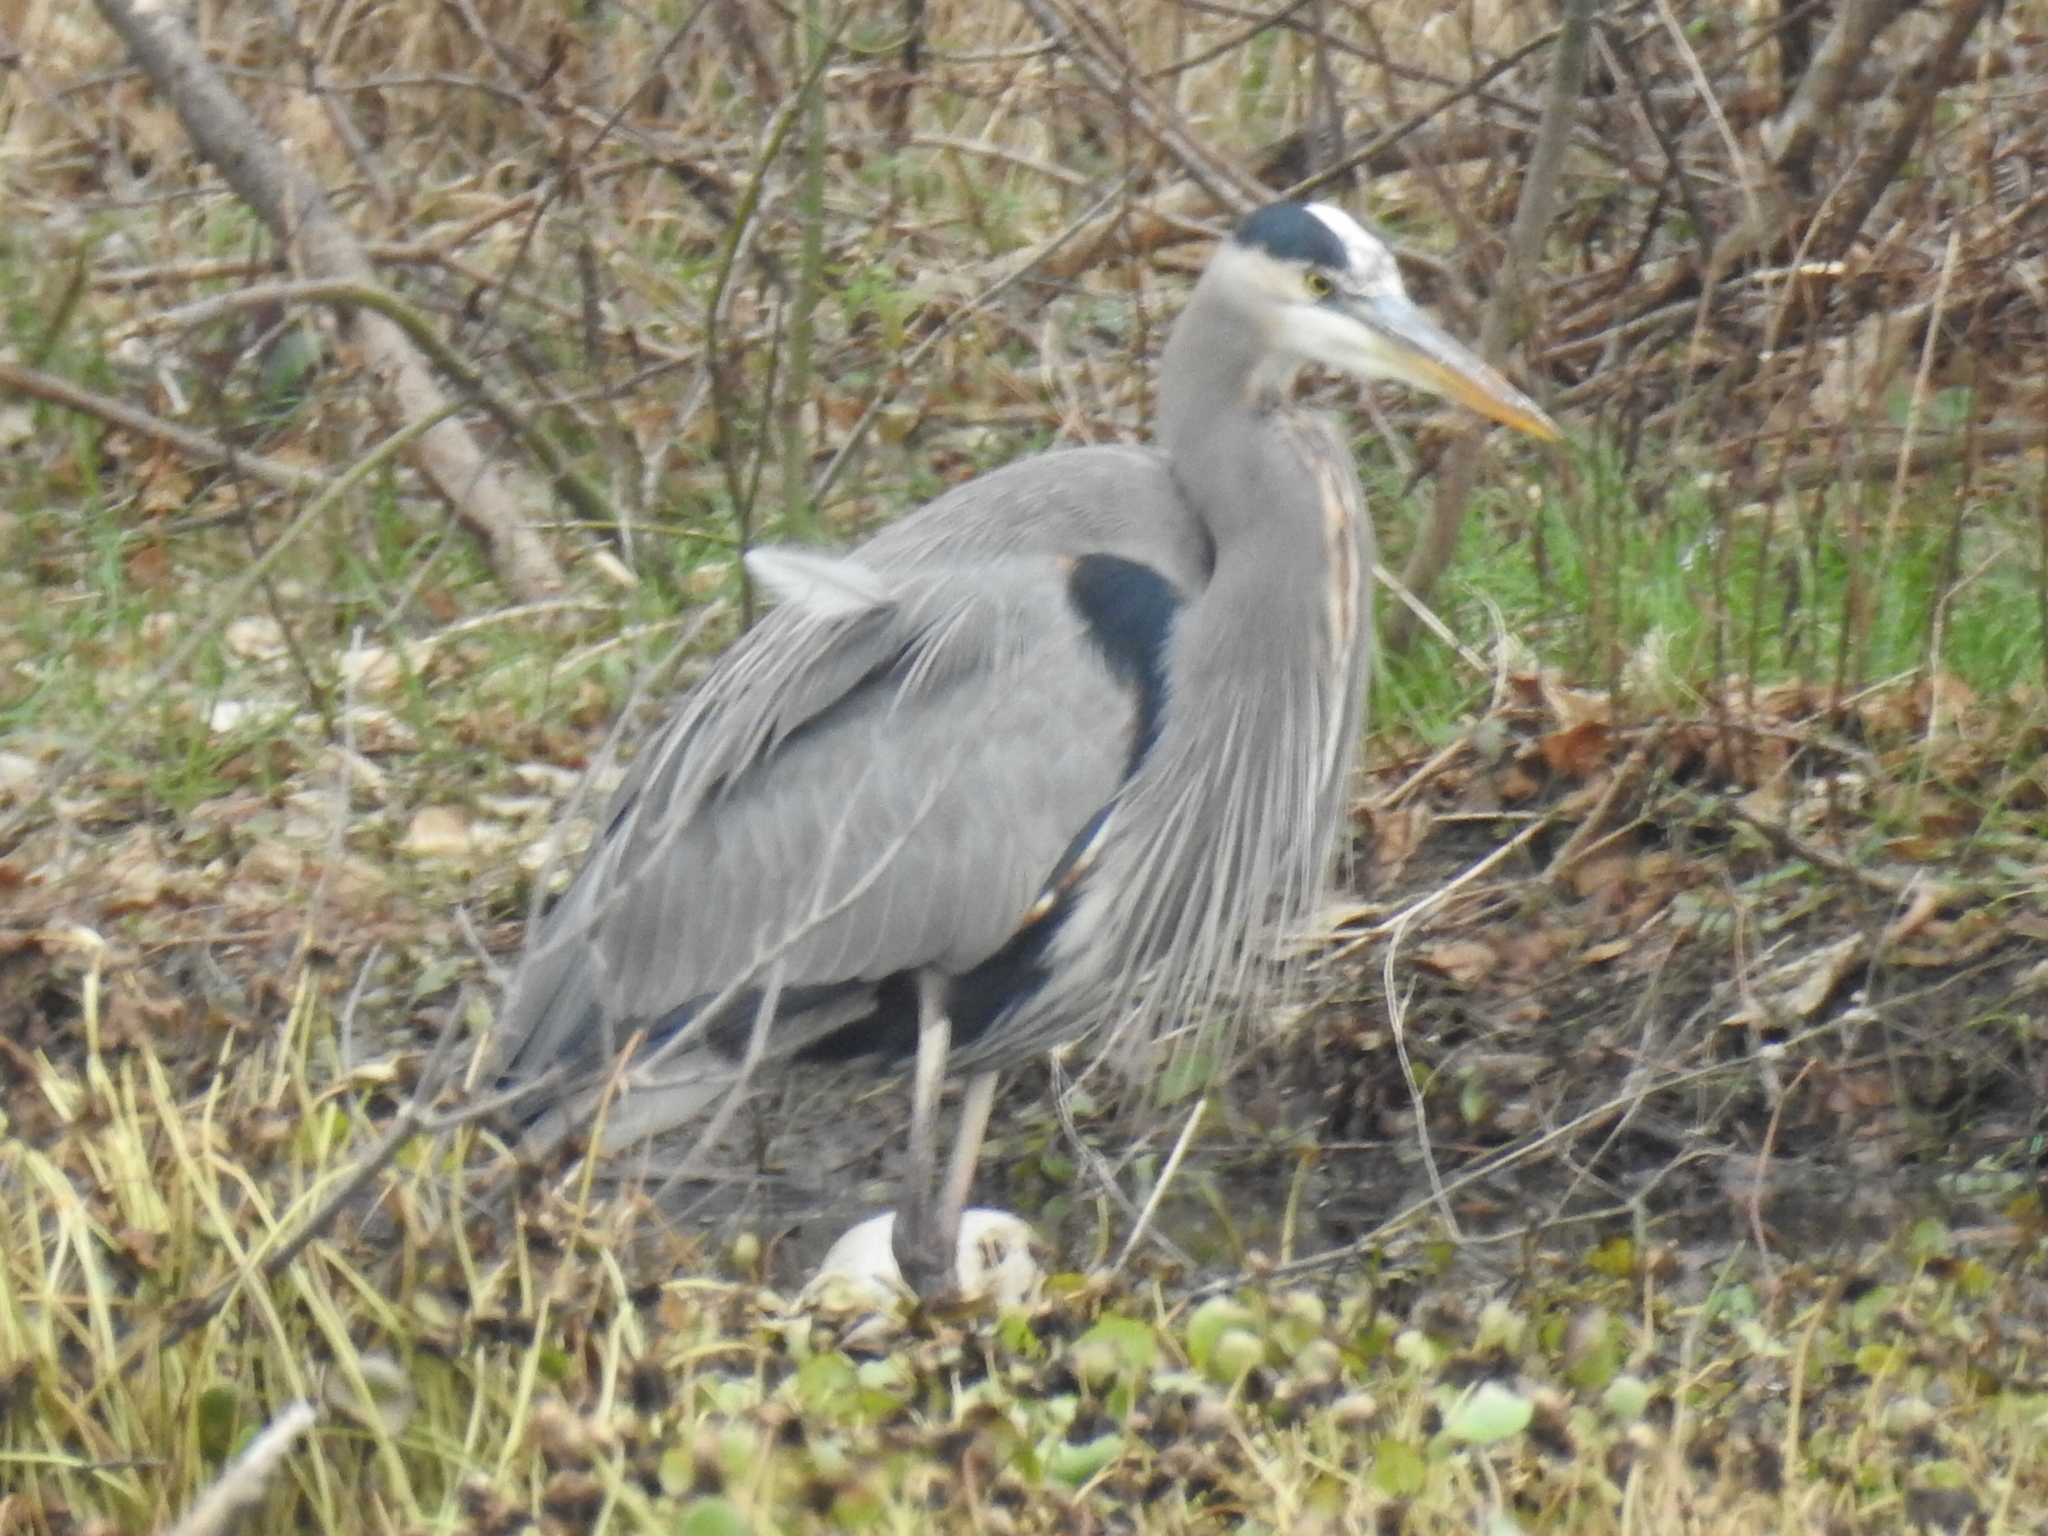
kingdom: Animalia
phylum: Chordata
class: Aves
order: Pelecaniformes
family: Ardeidae
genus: Ardea
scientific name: Ardea herodias
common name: Great blue heron
